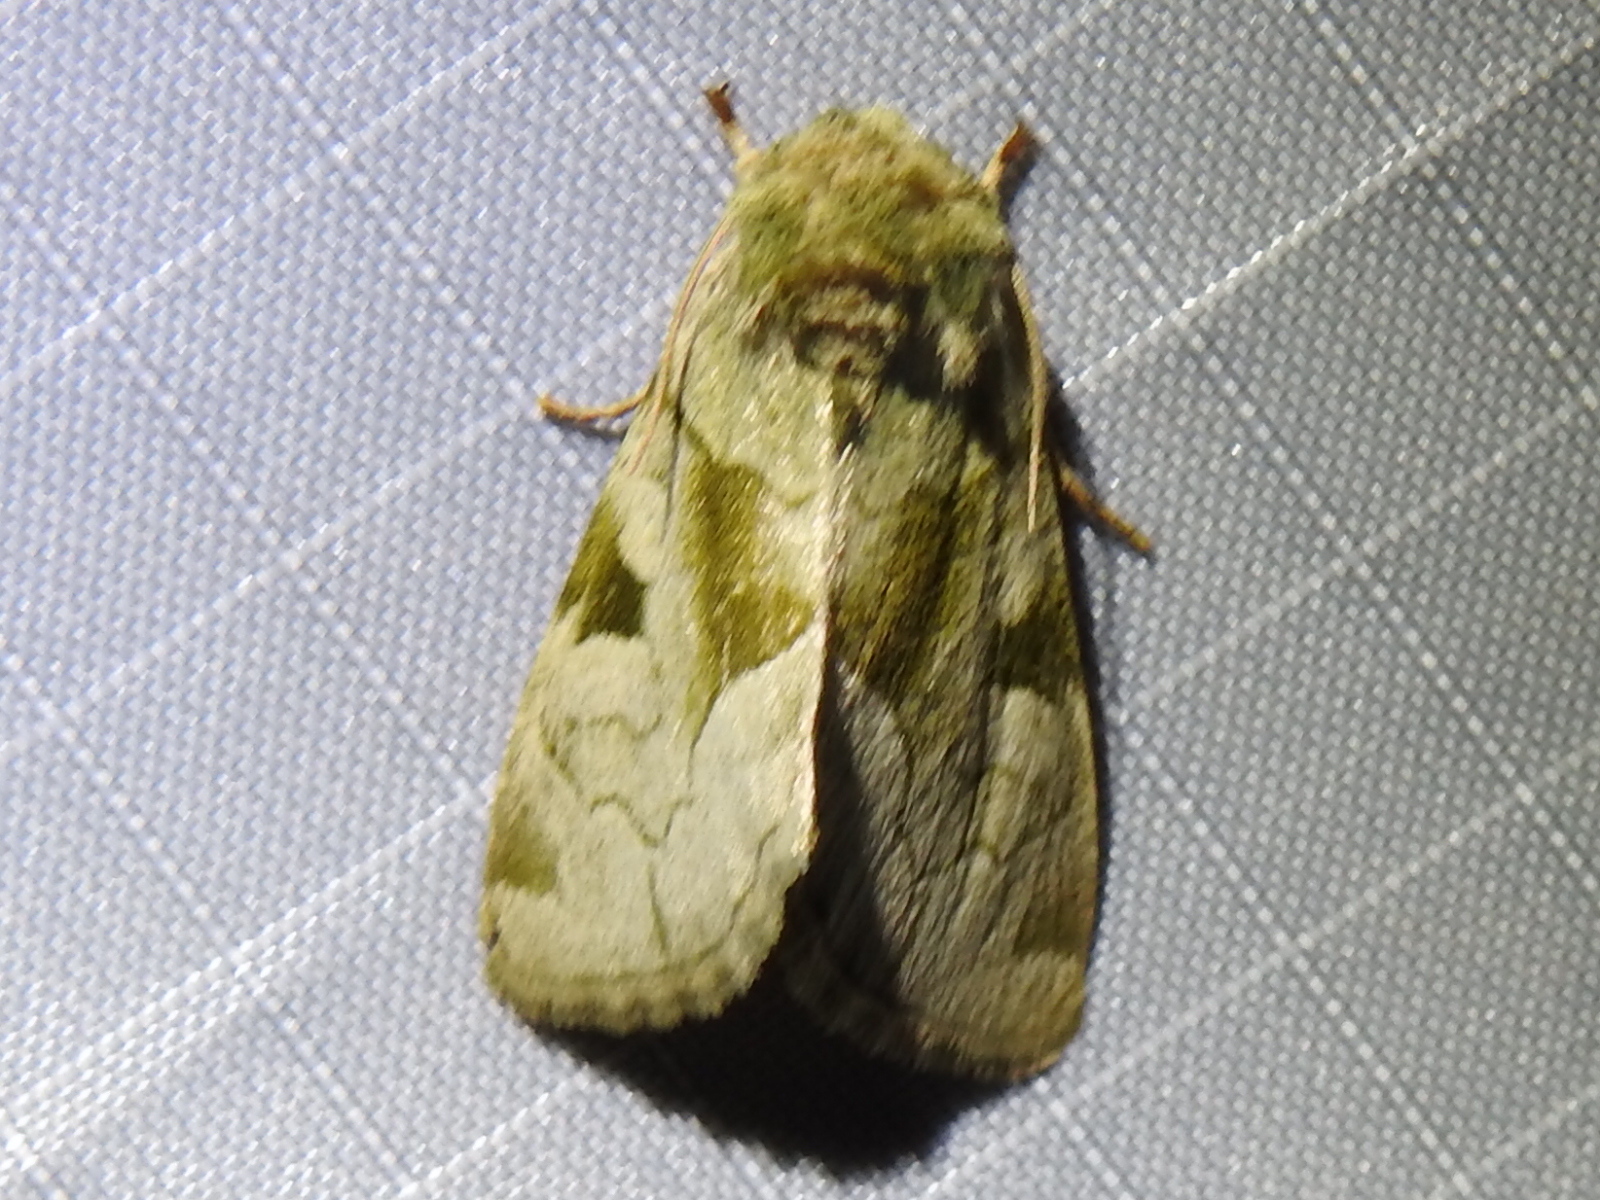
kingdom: Animalia
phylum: Arthropoda
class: Insecta
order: Lepidoptera
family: Noctuidae
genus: Oslaria
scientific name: Oslaria viridifera
